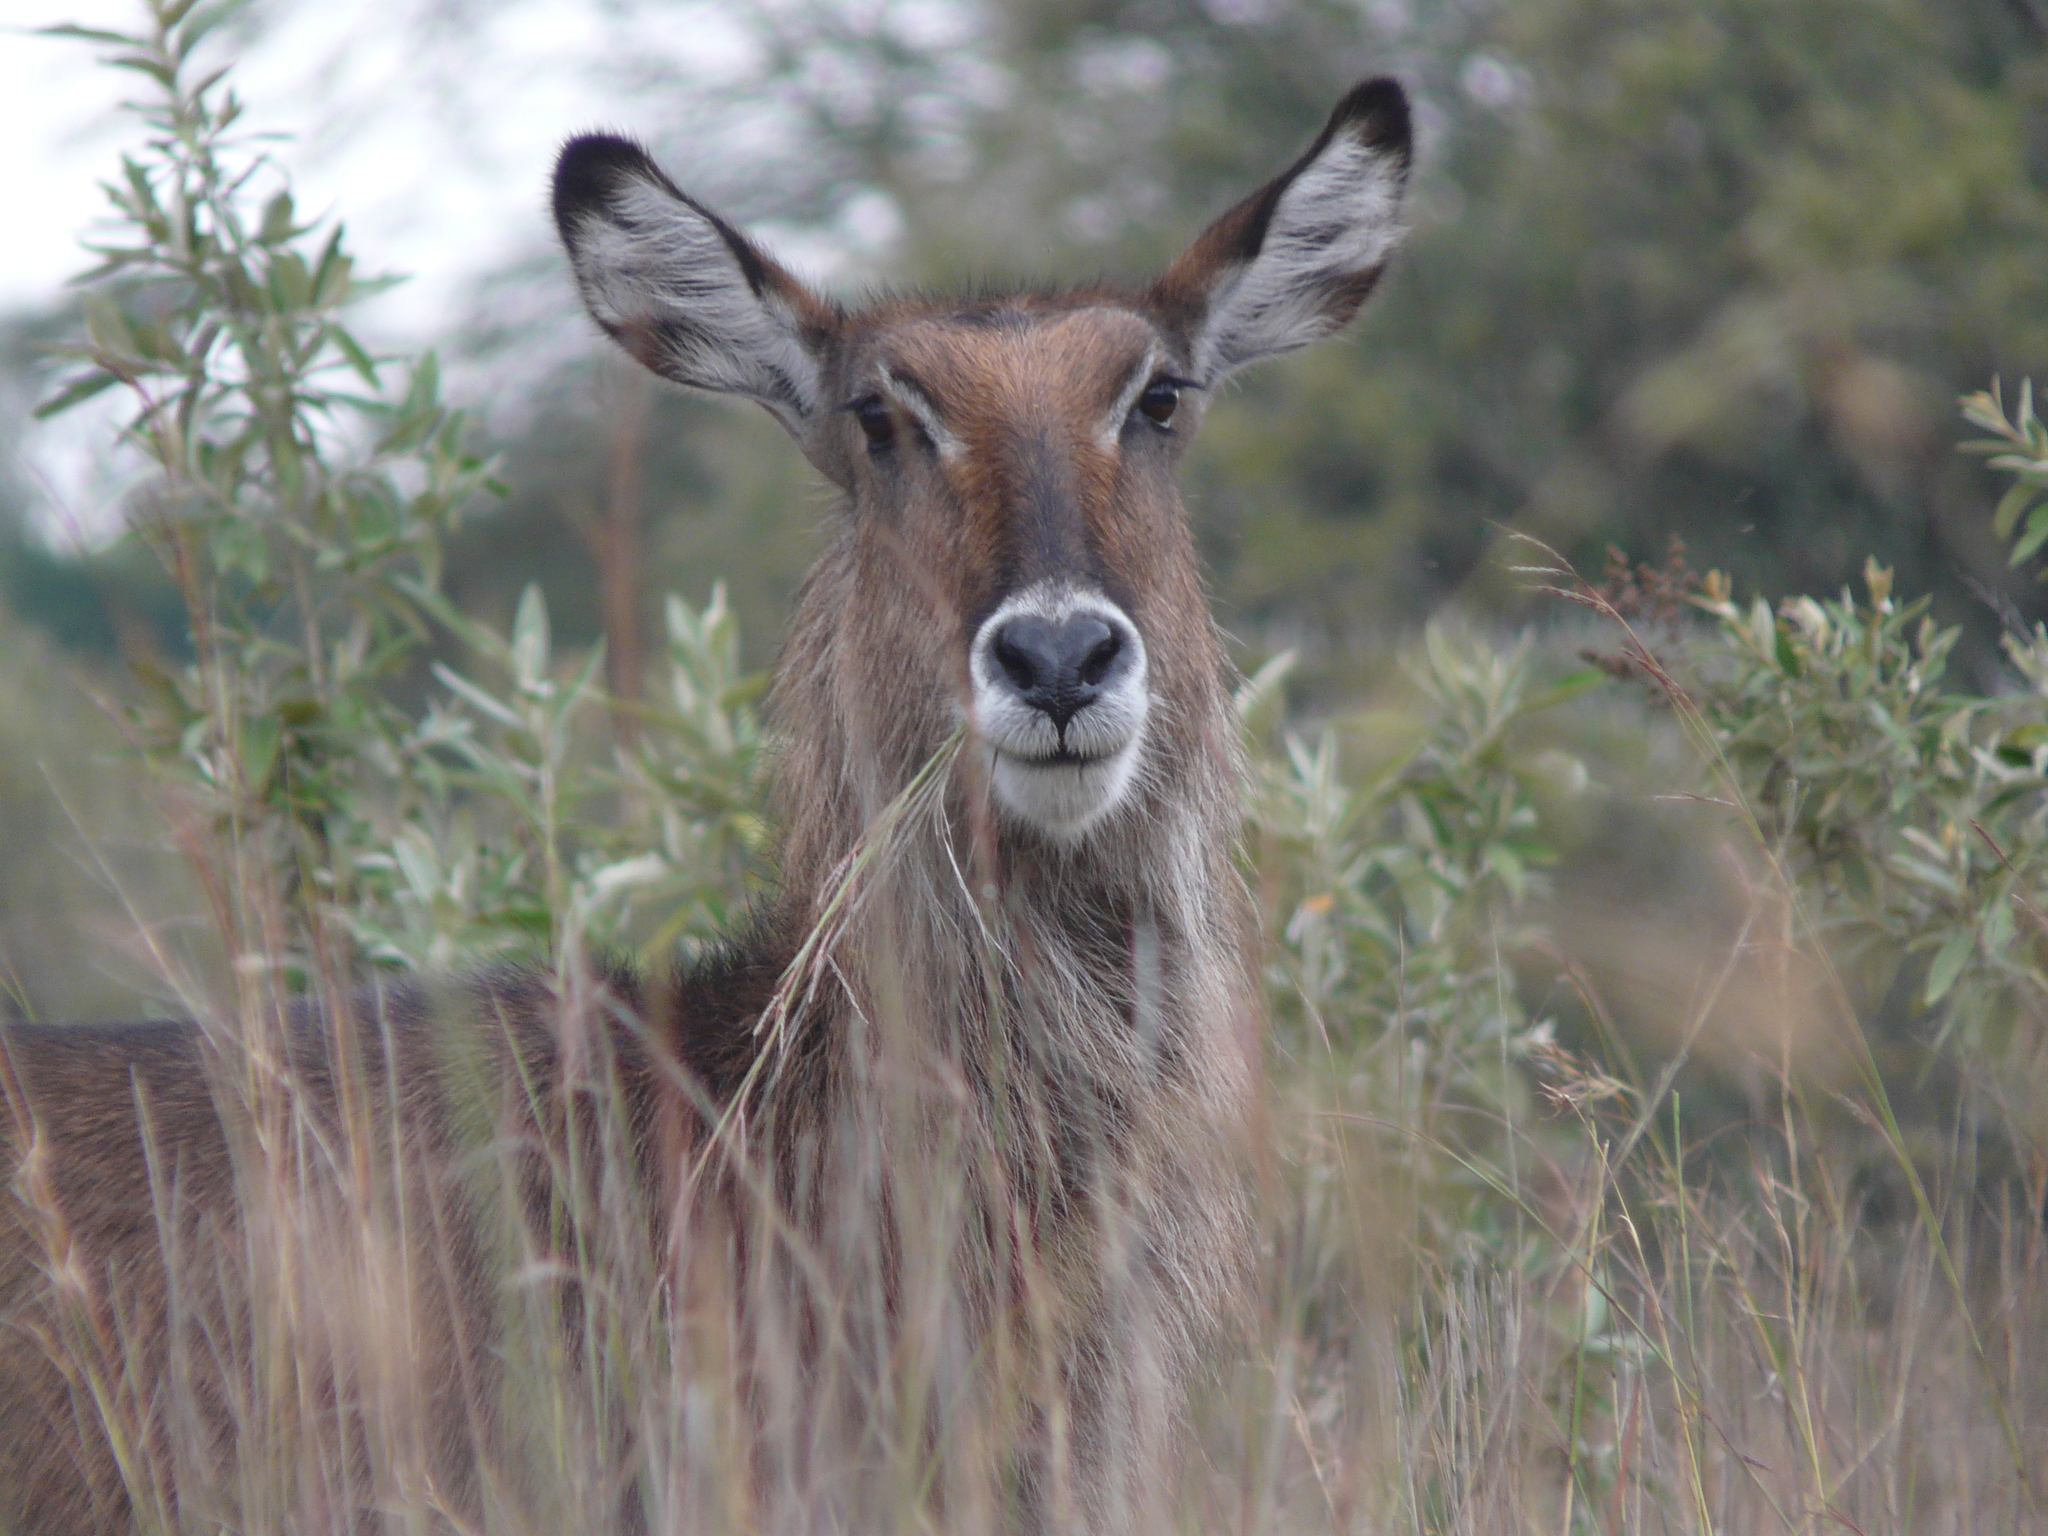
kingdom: Animalia
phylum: Chordata
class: Mammalia
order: Artiodactyla
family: Bovidae
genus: Kobus
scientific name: Kobus ellipsiprymnus
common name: Waterbuck
